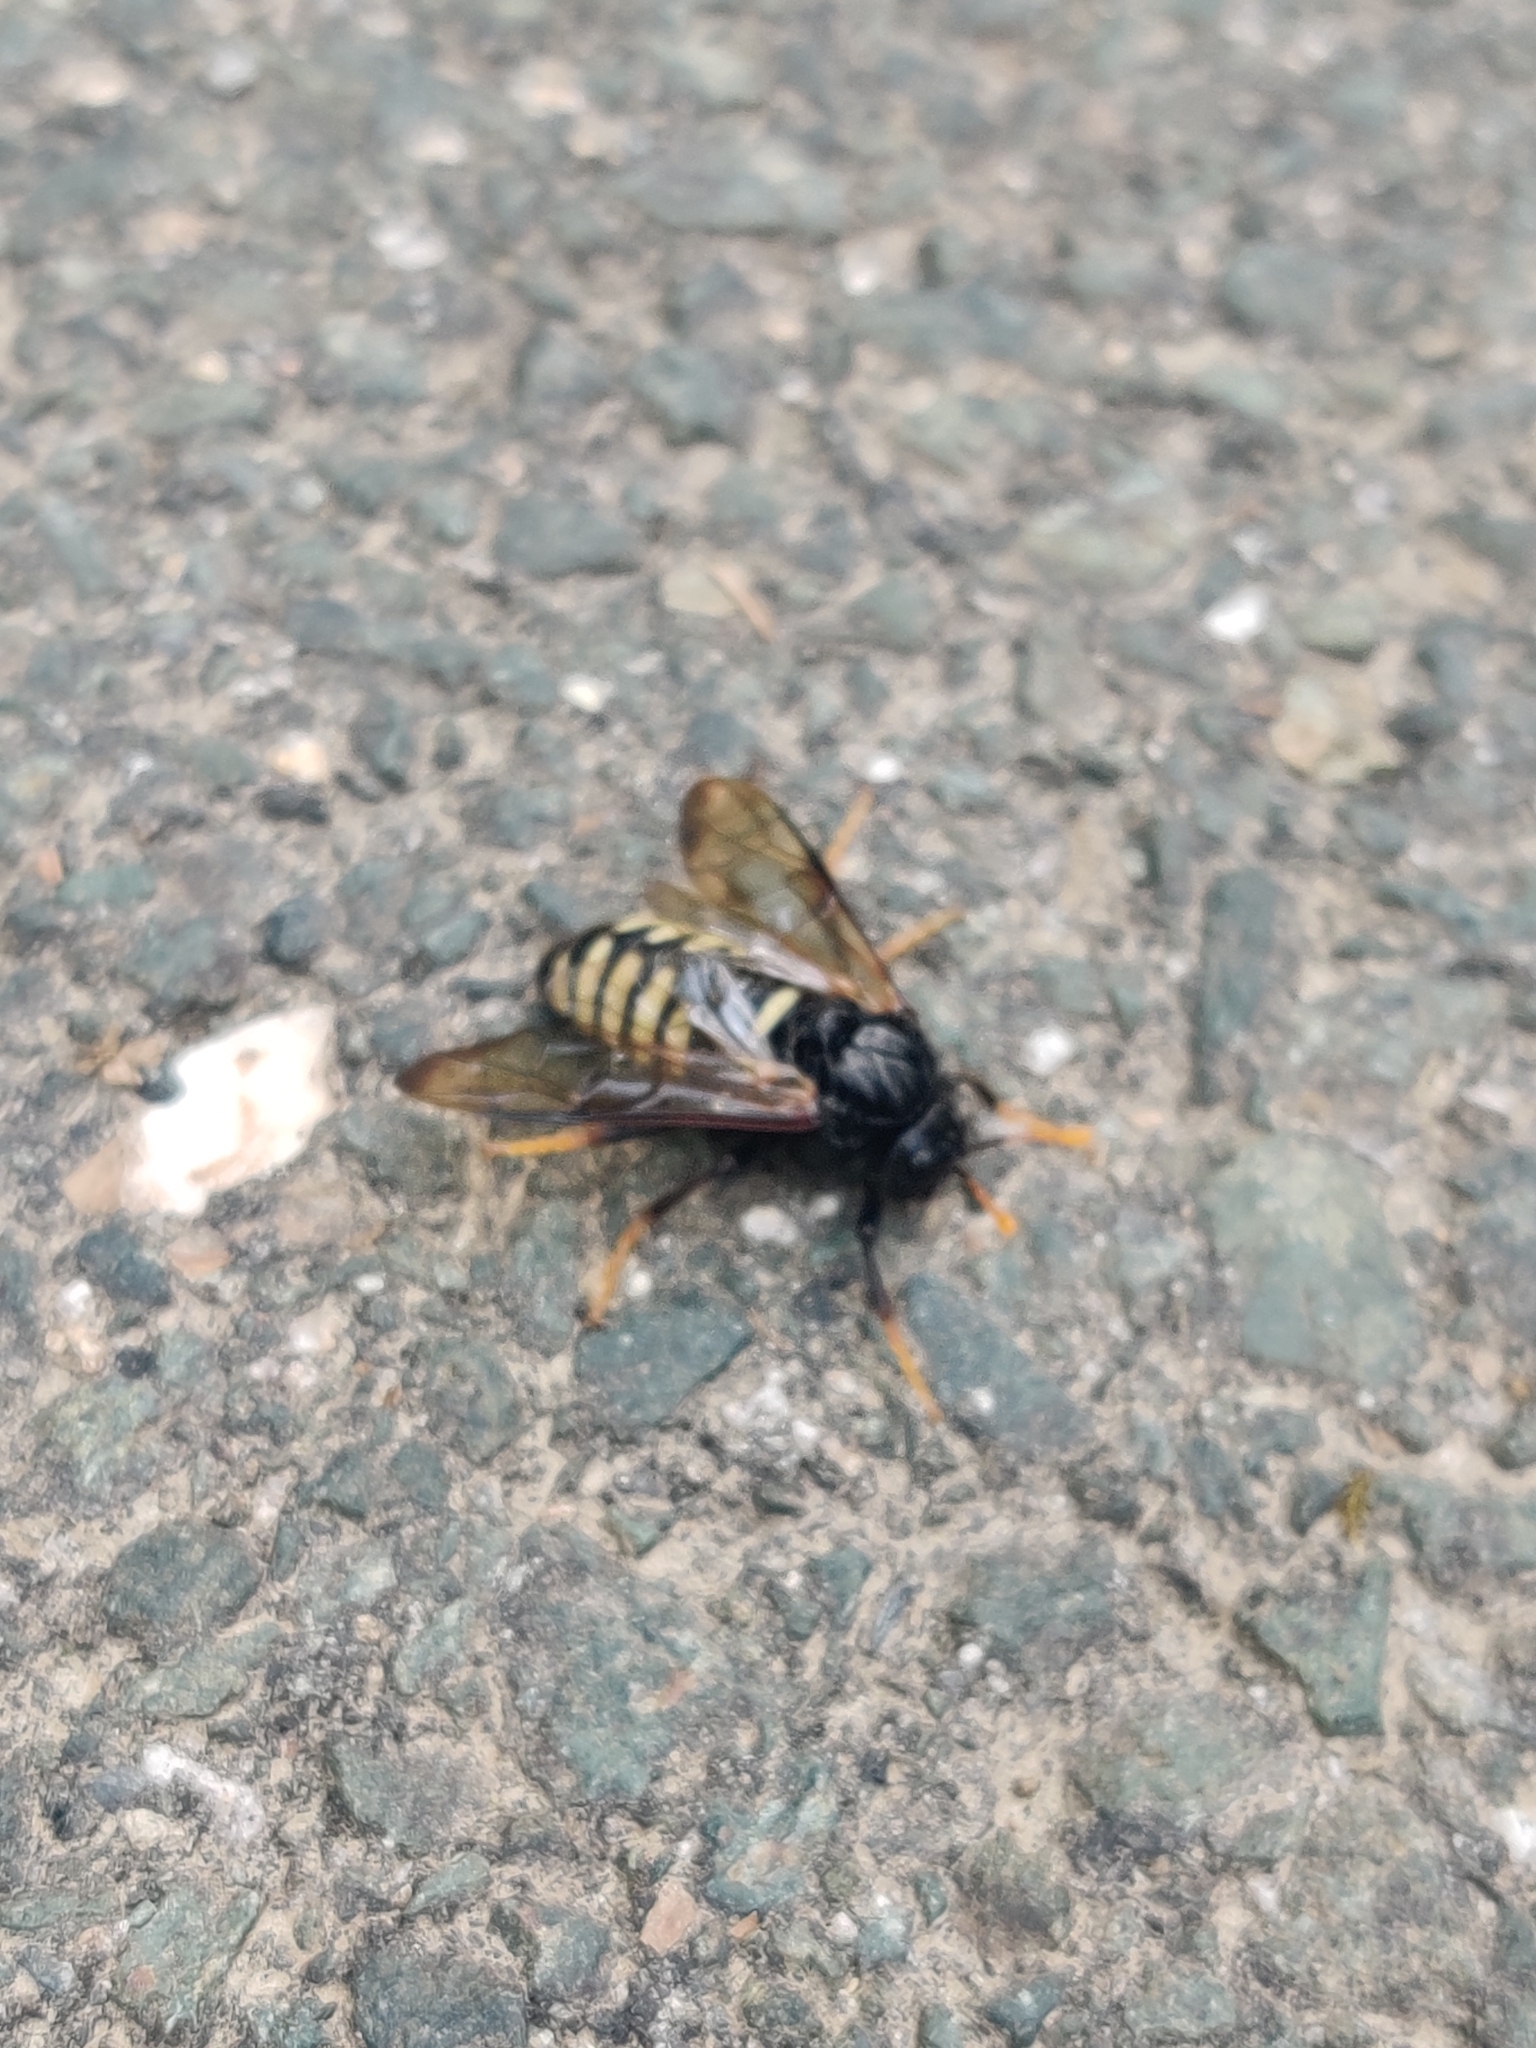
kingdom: Animalia
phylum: Arthropoda
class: Insecta
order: Hymenoptera
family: Cimbicidae
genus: Cimbex
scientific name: Cimbex americana
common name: Elm sawfly
